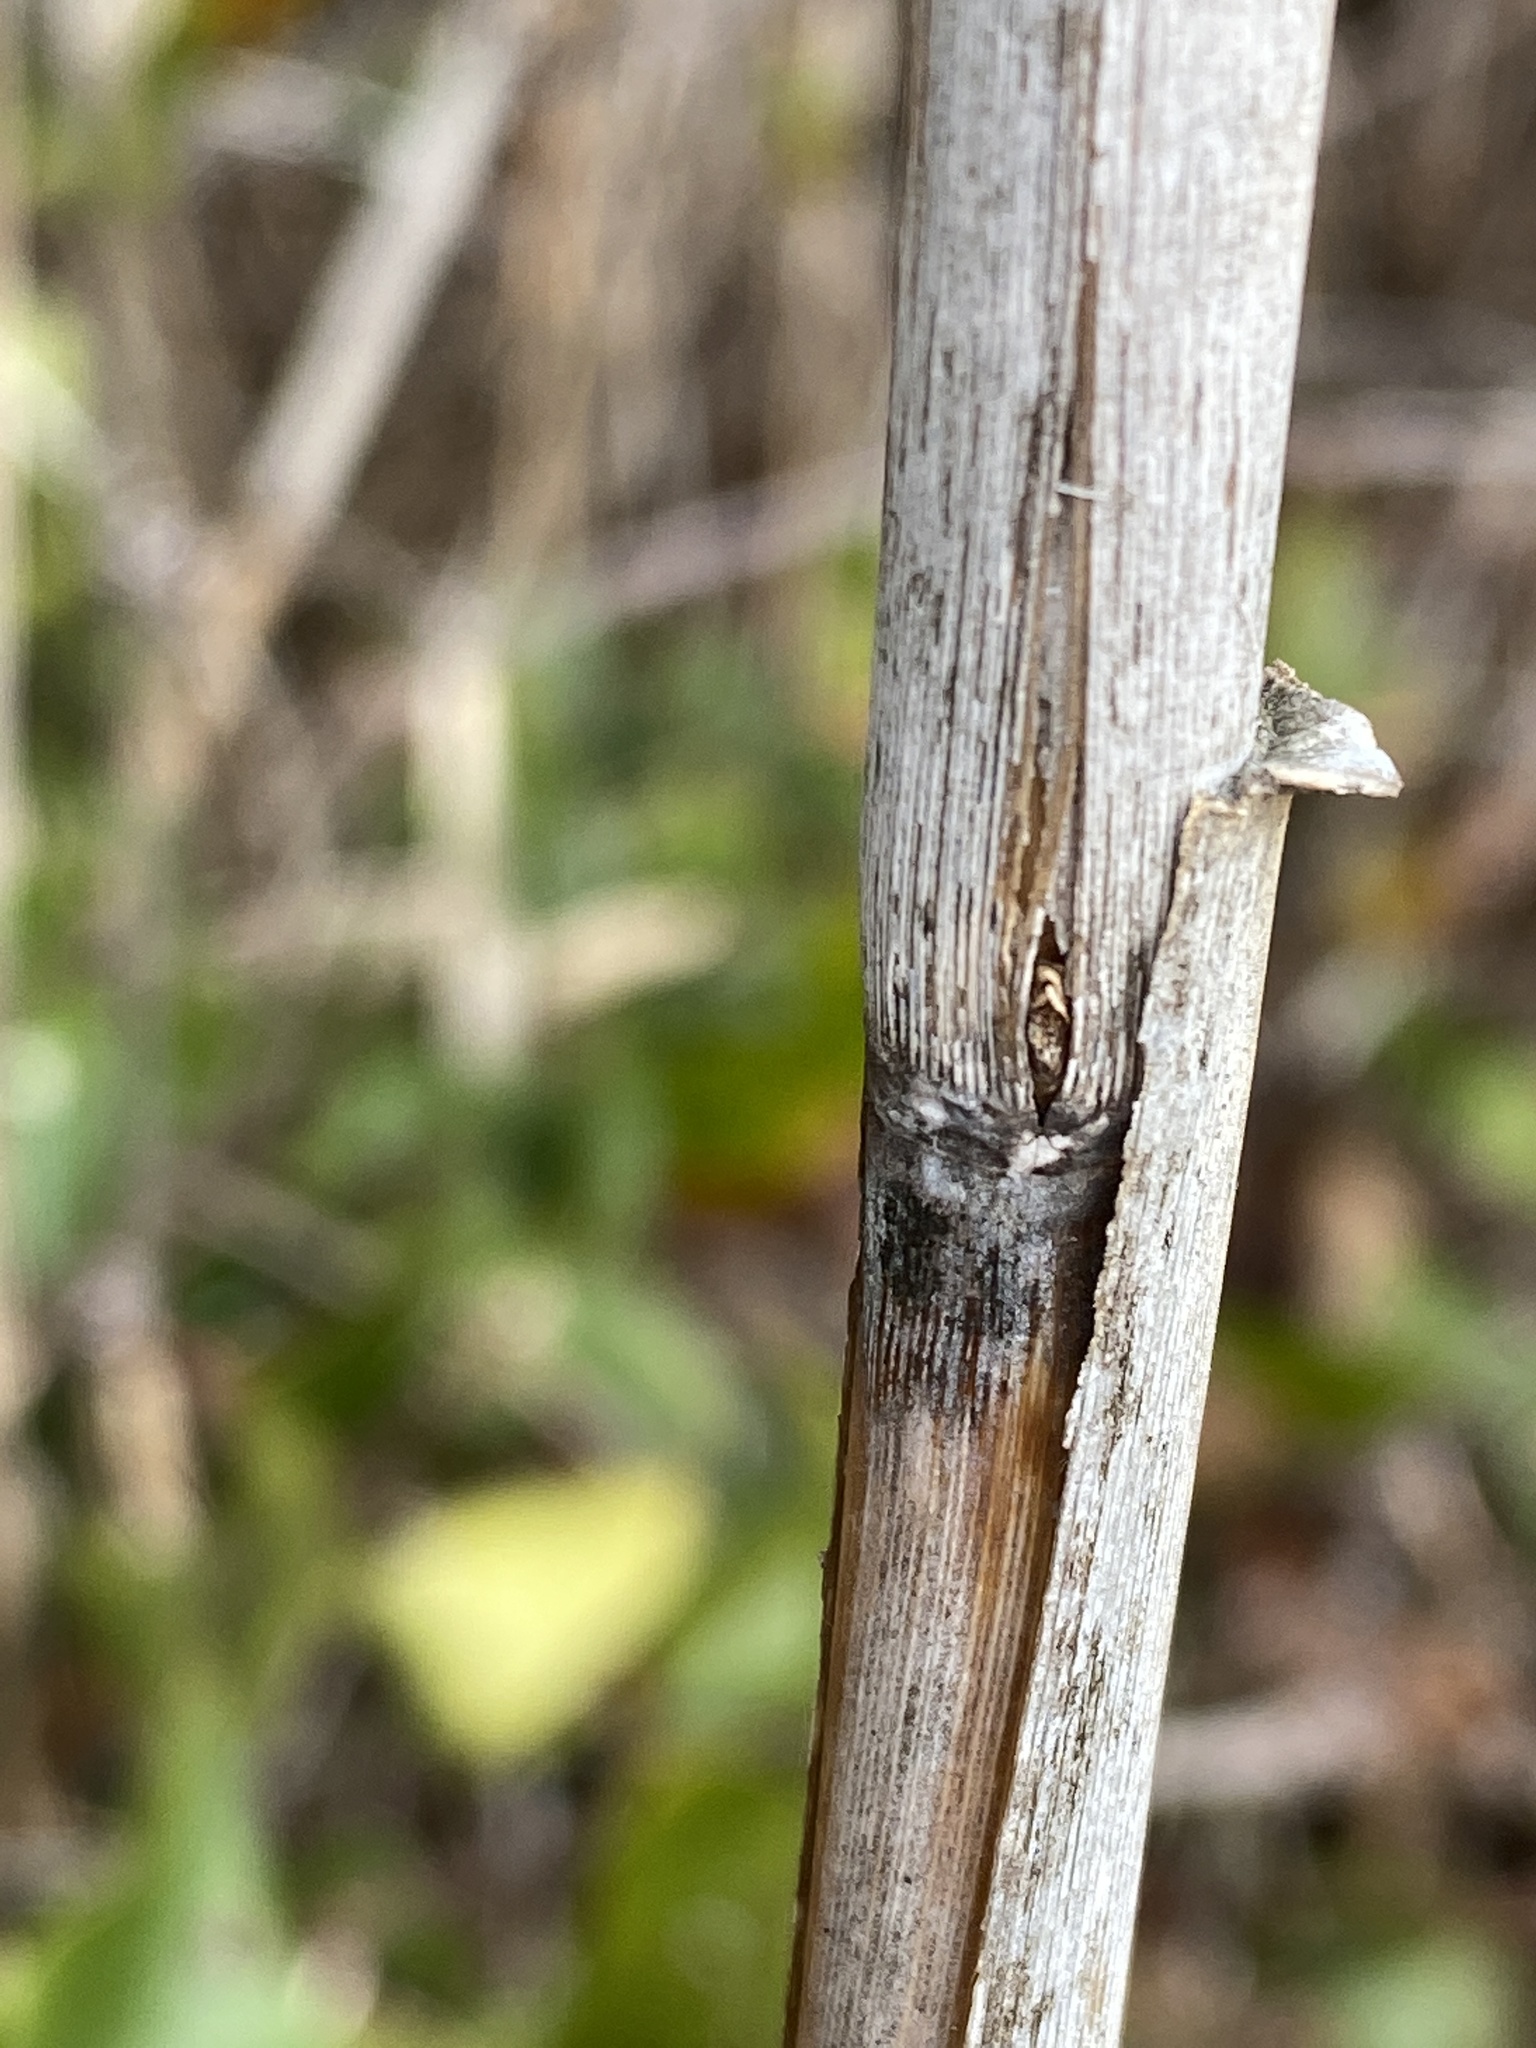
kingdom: Plantae
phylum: Tracheophyta
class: Liliopsida
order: Poales
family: Poaceae
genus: Phragmites
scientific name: Phragmites australis
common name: Common reed
